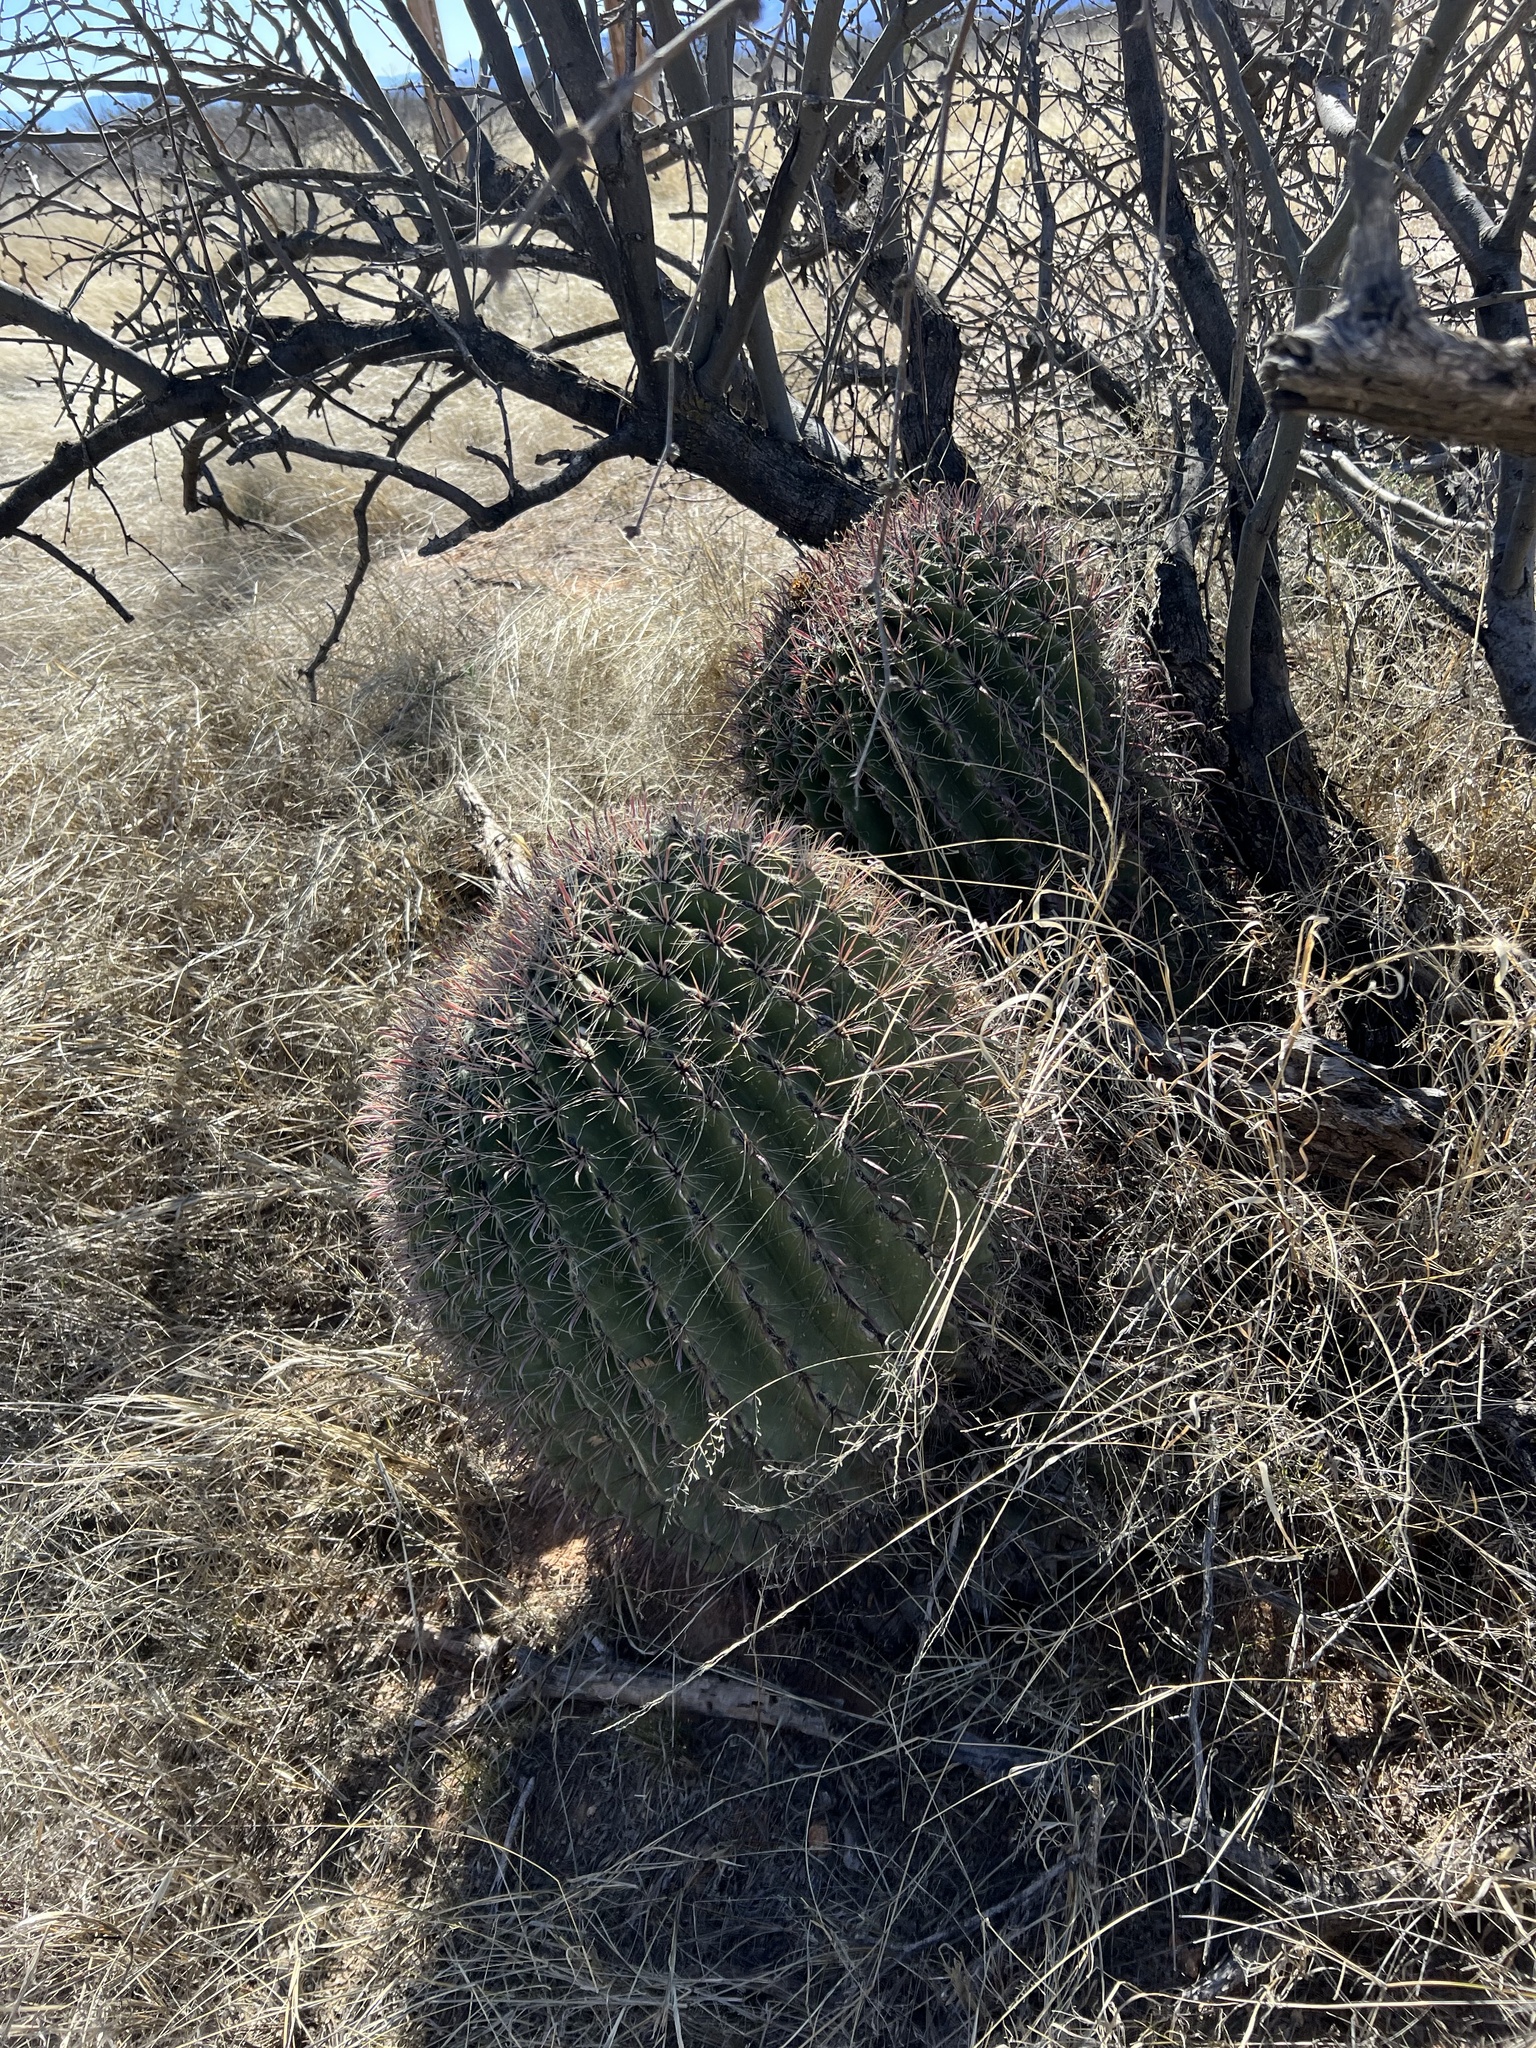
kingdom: Plantae
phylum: Tracheophyta
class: Magnoliopsida
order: Caryophyllales
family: Cactaceae
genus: Ferocactus
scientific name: Ferocactus wislizeni
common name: Candy barrel cactus
